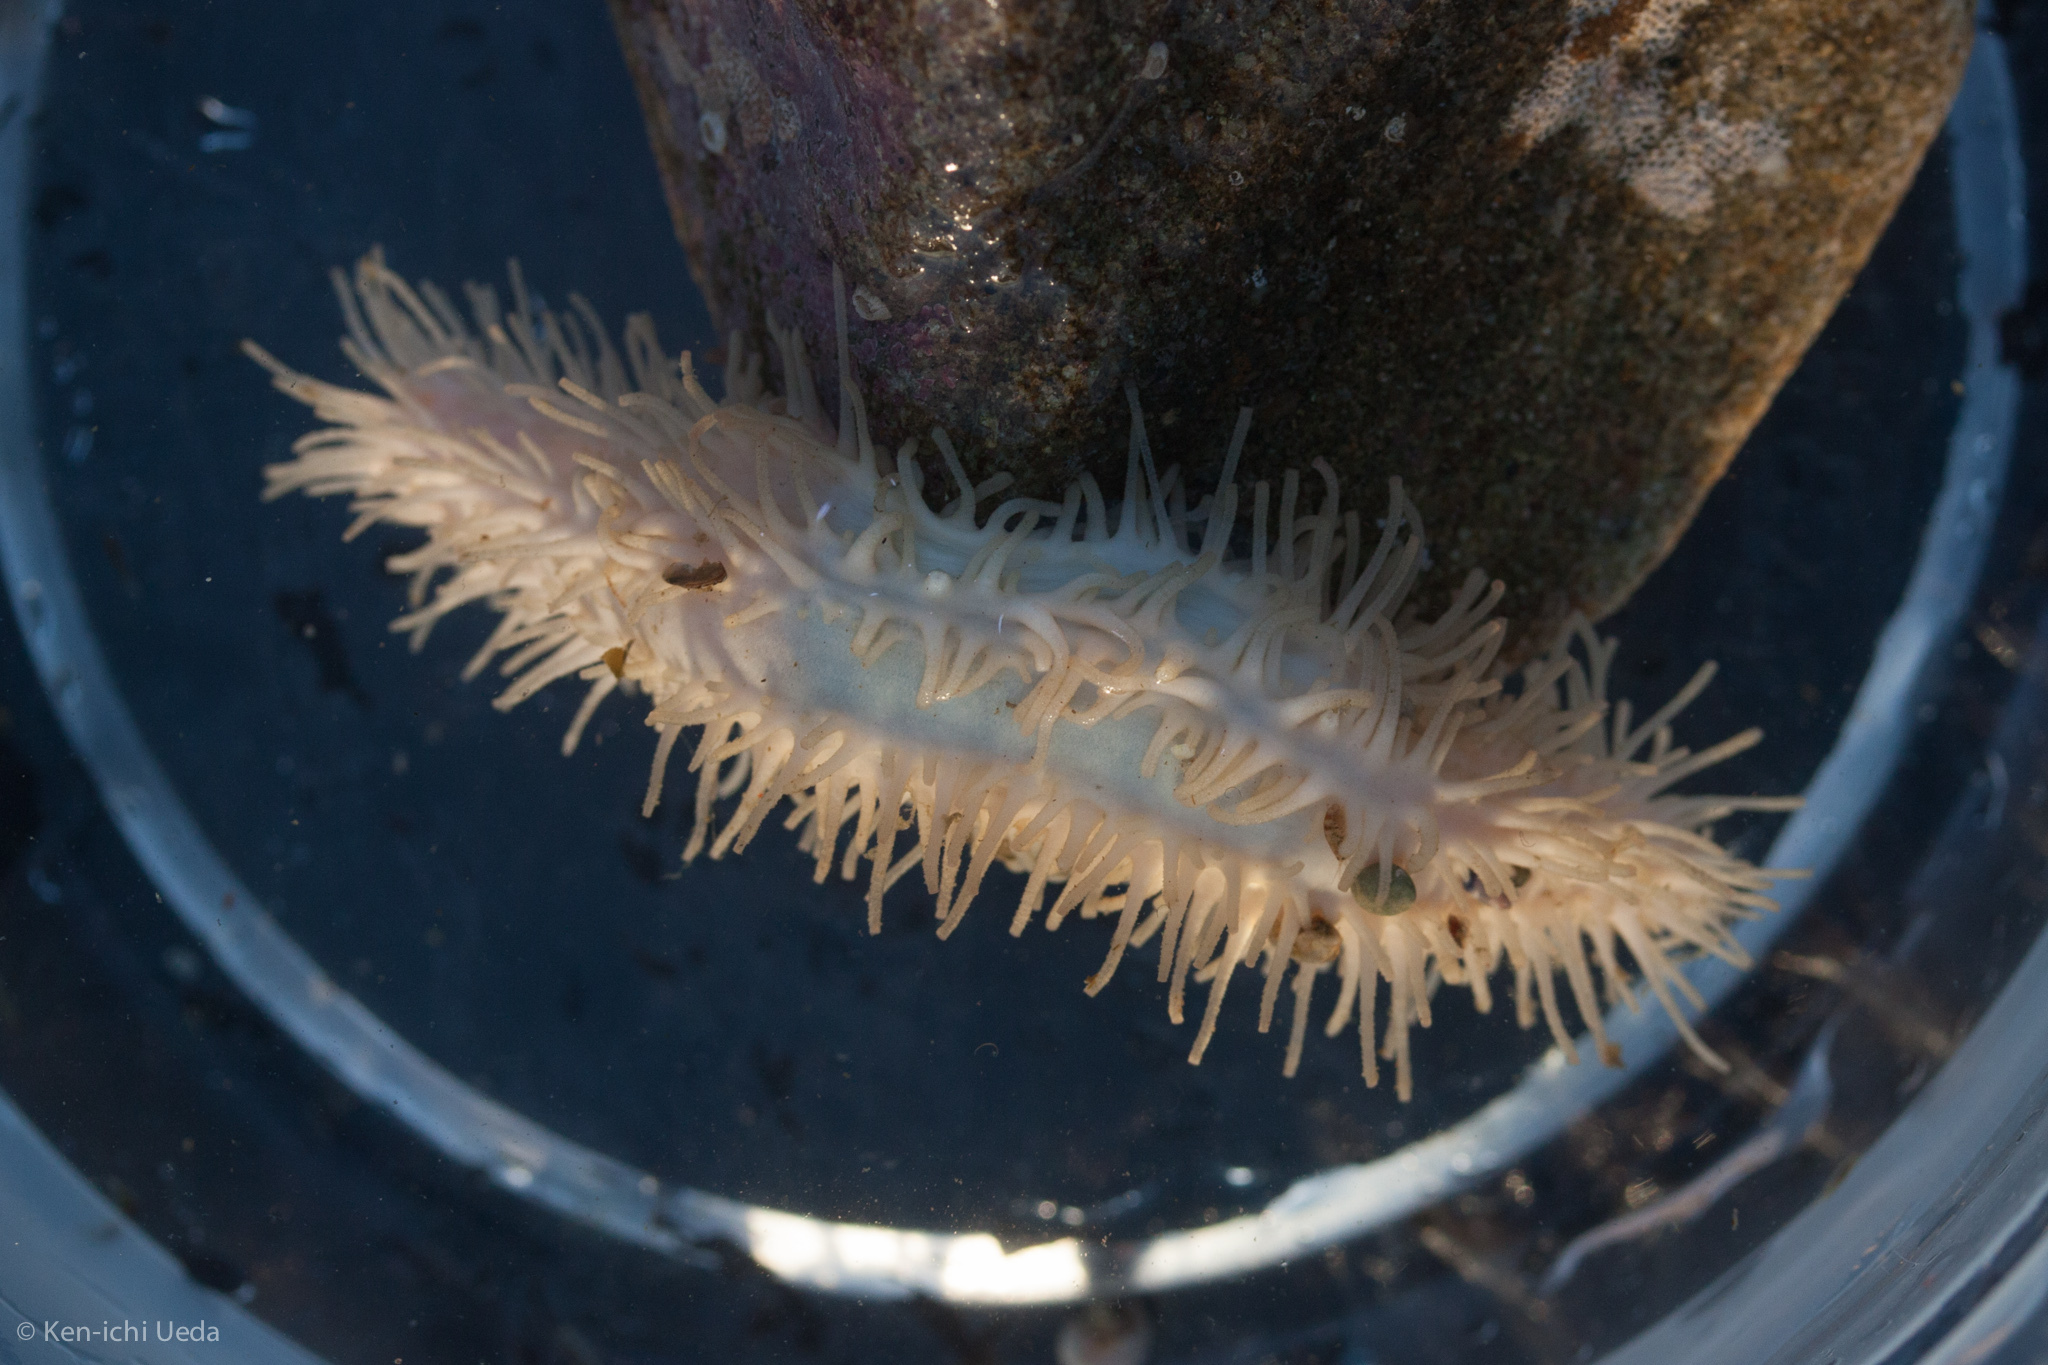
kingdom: Animalia
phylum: Echinodermata
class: Holothuroidea
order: Dendrochirotida
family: Sclerodactylidae
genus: Eupentacta
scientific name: Eupentacta quinquesemita
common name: Pentamerous sea cucumber
